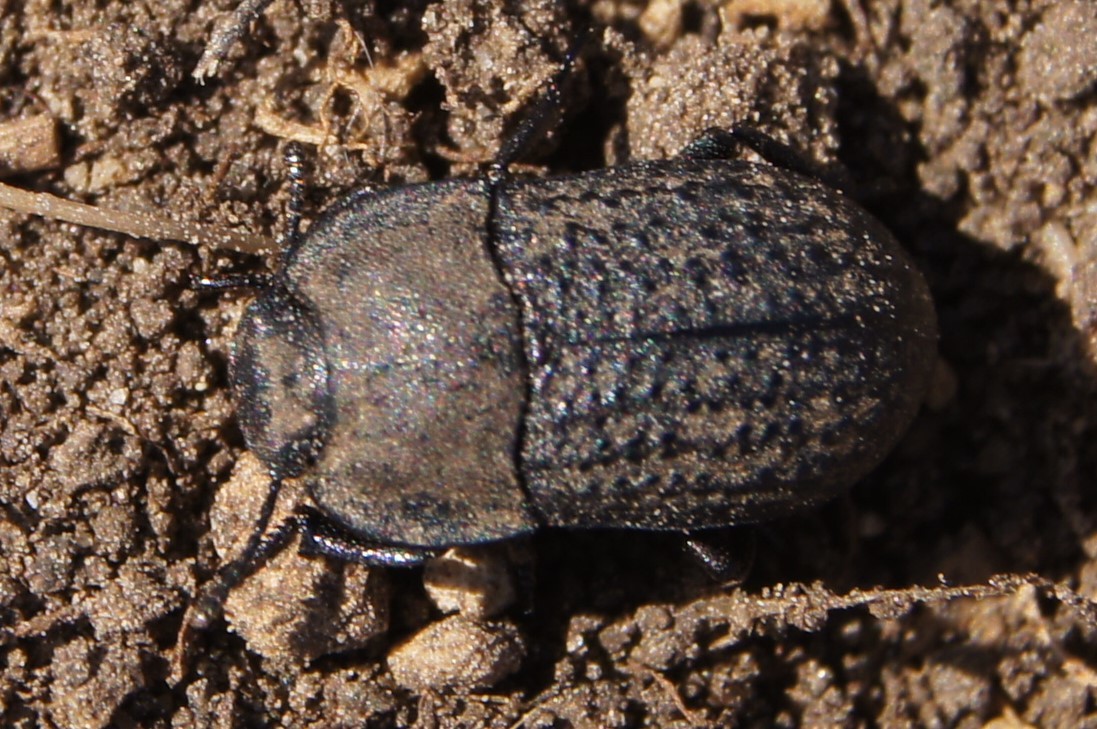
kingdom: Animalia
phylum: Arthropoda
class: Insecta
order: Coleoptera
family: Tenebrionidae
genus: Opatrum
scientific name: Opatrum sabulosum
